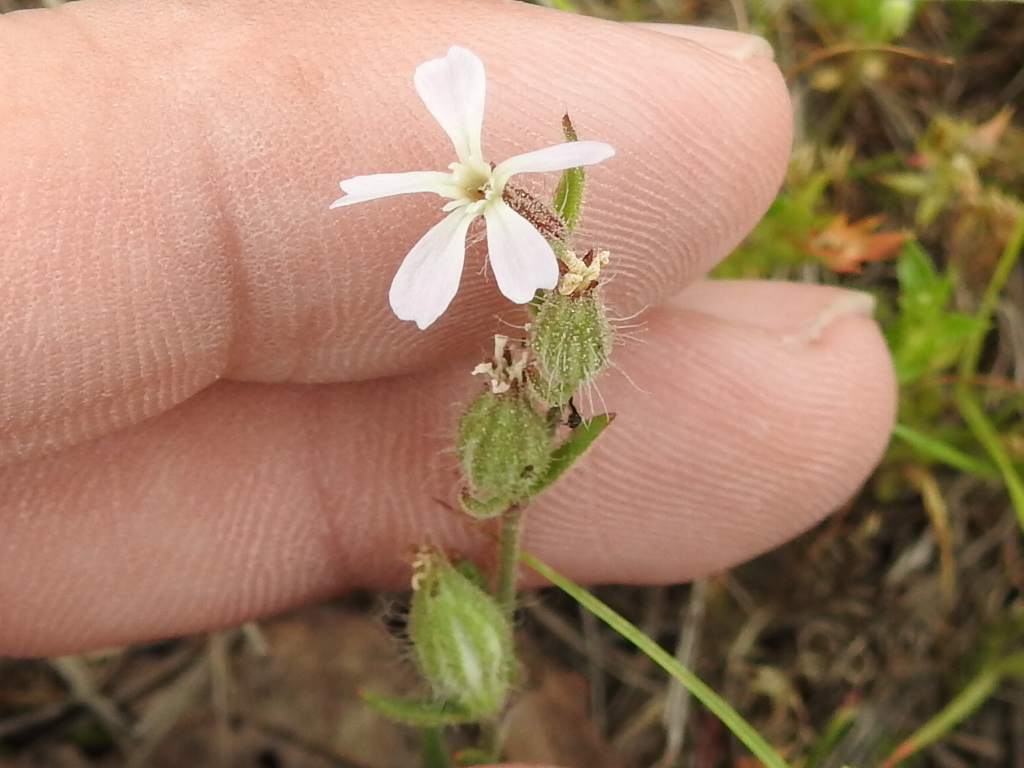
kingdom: Plantae
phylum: Tracheophyta
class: Magnoliopsida
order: Caryophyllales
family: Caryophyllaceae
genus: Silene
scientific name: Silene gallica
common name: Small-flowered catchfly
